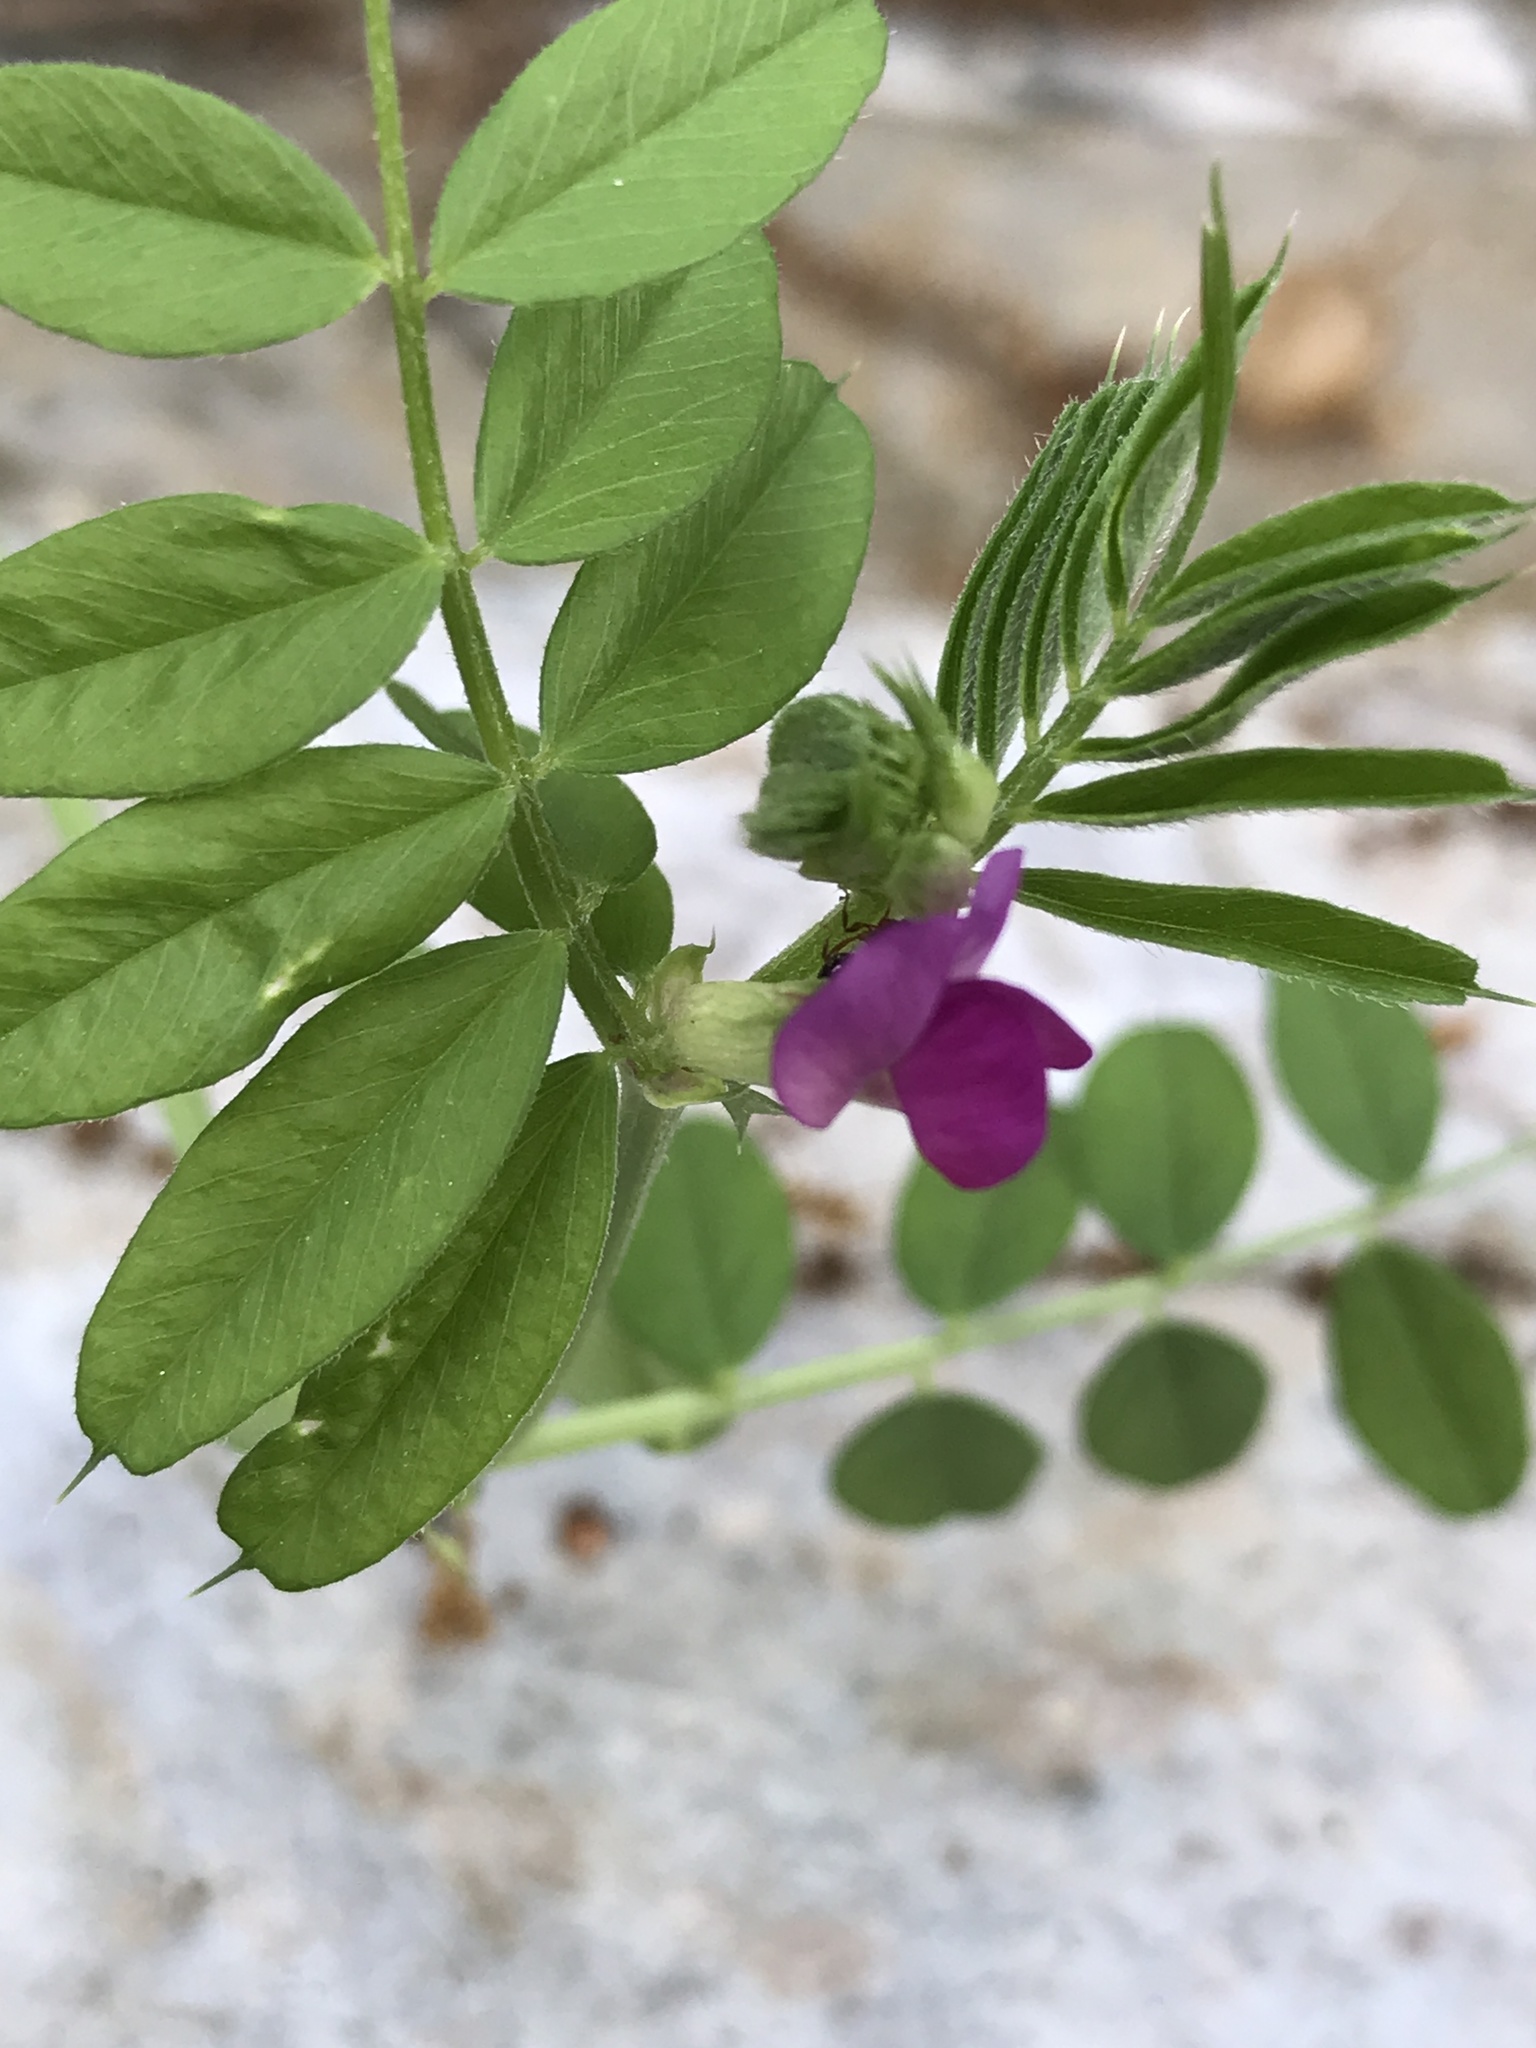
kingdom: Plantae
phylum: Tracheophyta
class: Magnoliopsida
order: Fabales
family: Fabaceae
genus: Vicia
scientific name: Vicia sativa
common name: Garden vetch
